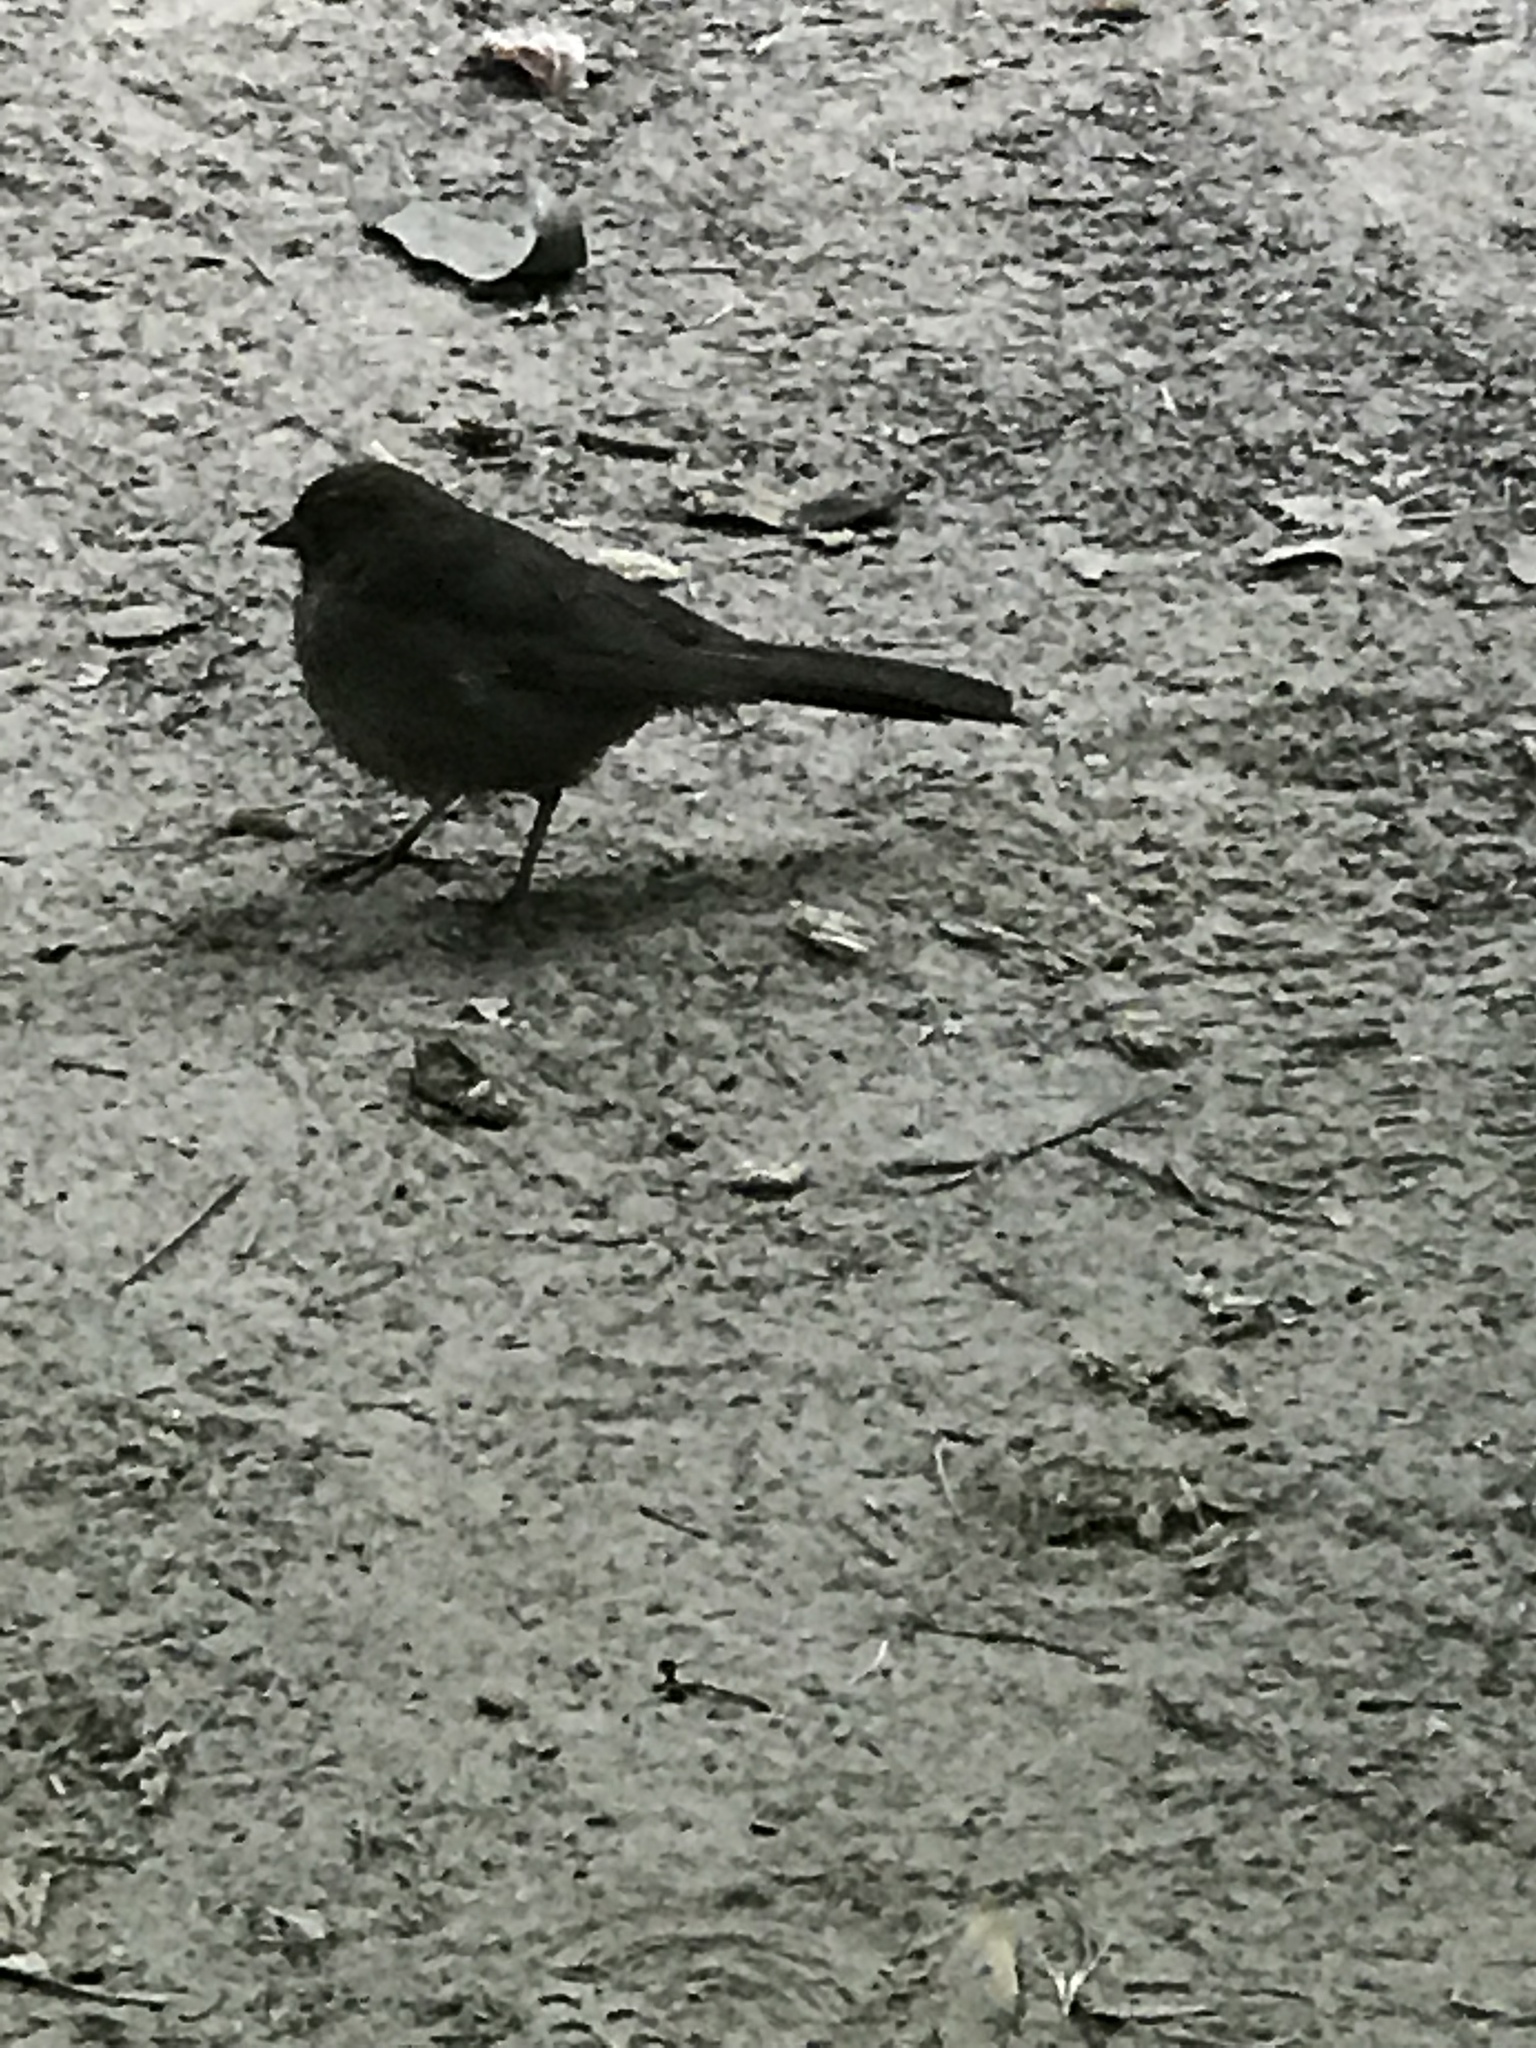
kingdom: Animalia
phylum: Chordata
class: Aves
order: Passeriformes
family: Passerellidae
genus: Melozone
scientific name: Melozone crissalis
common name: California towhee
